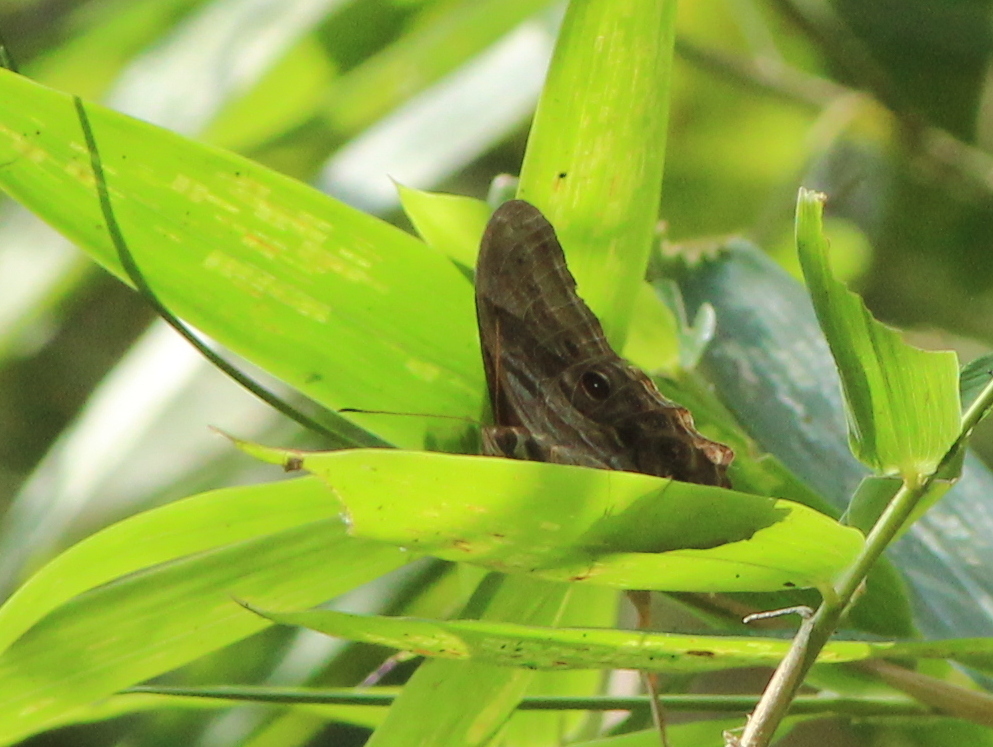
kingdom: Animalia
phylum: Arthropoda
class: Insecta
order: Lepidoptera
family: Nymphalidae
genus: Lethe
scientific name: Lethe drypetis
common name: Tamil treebrown
